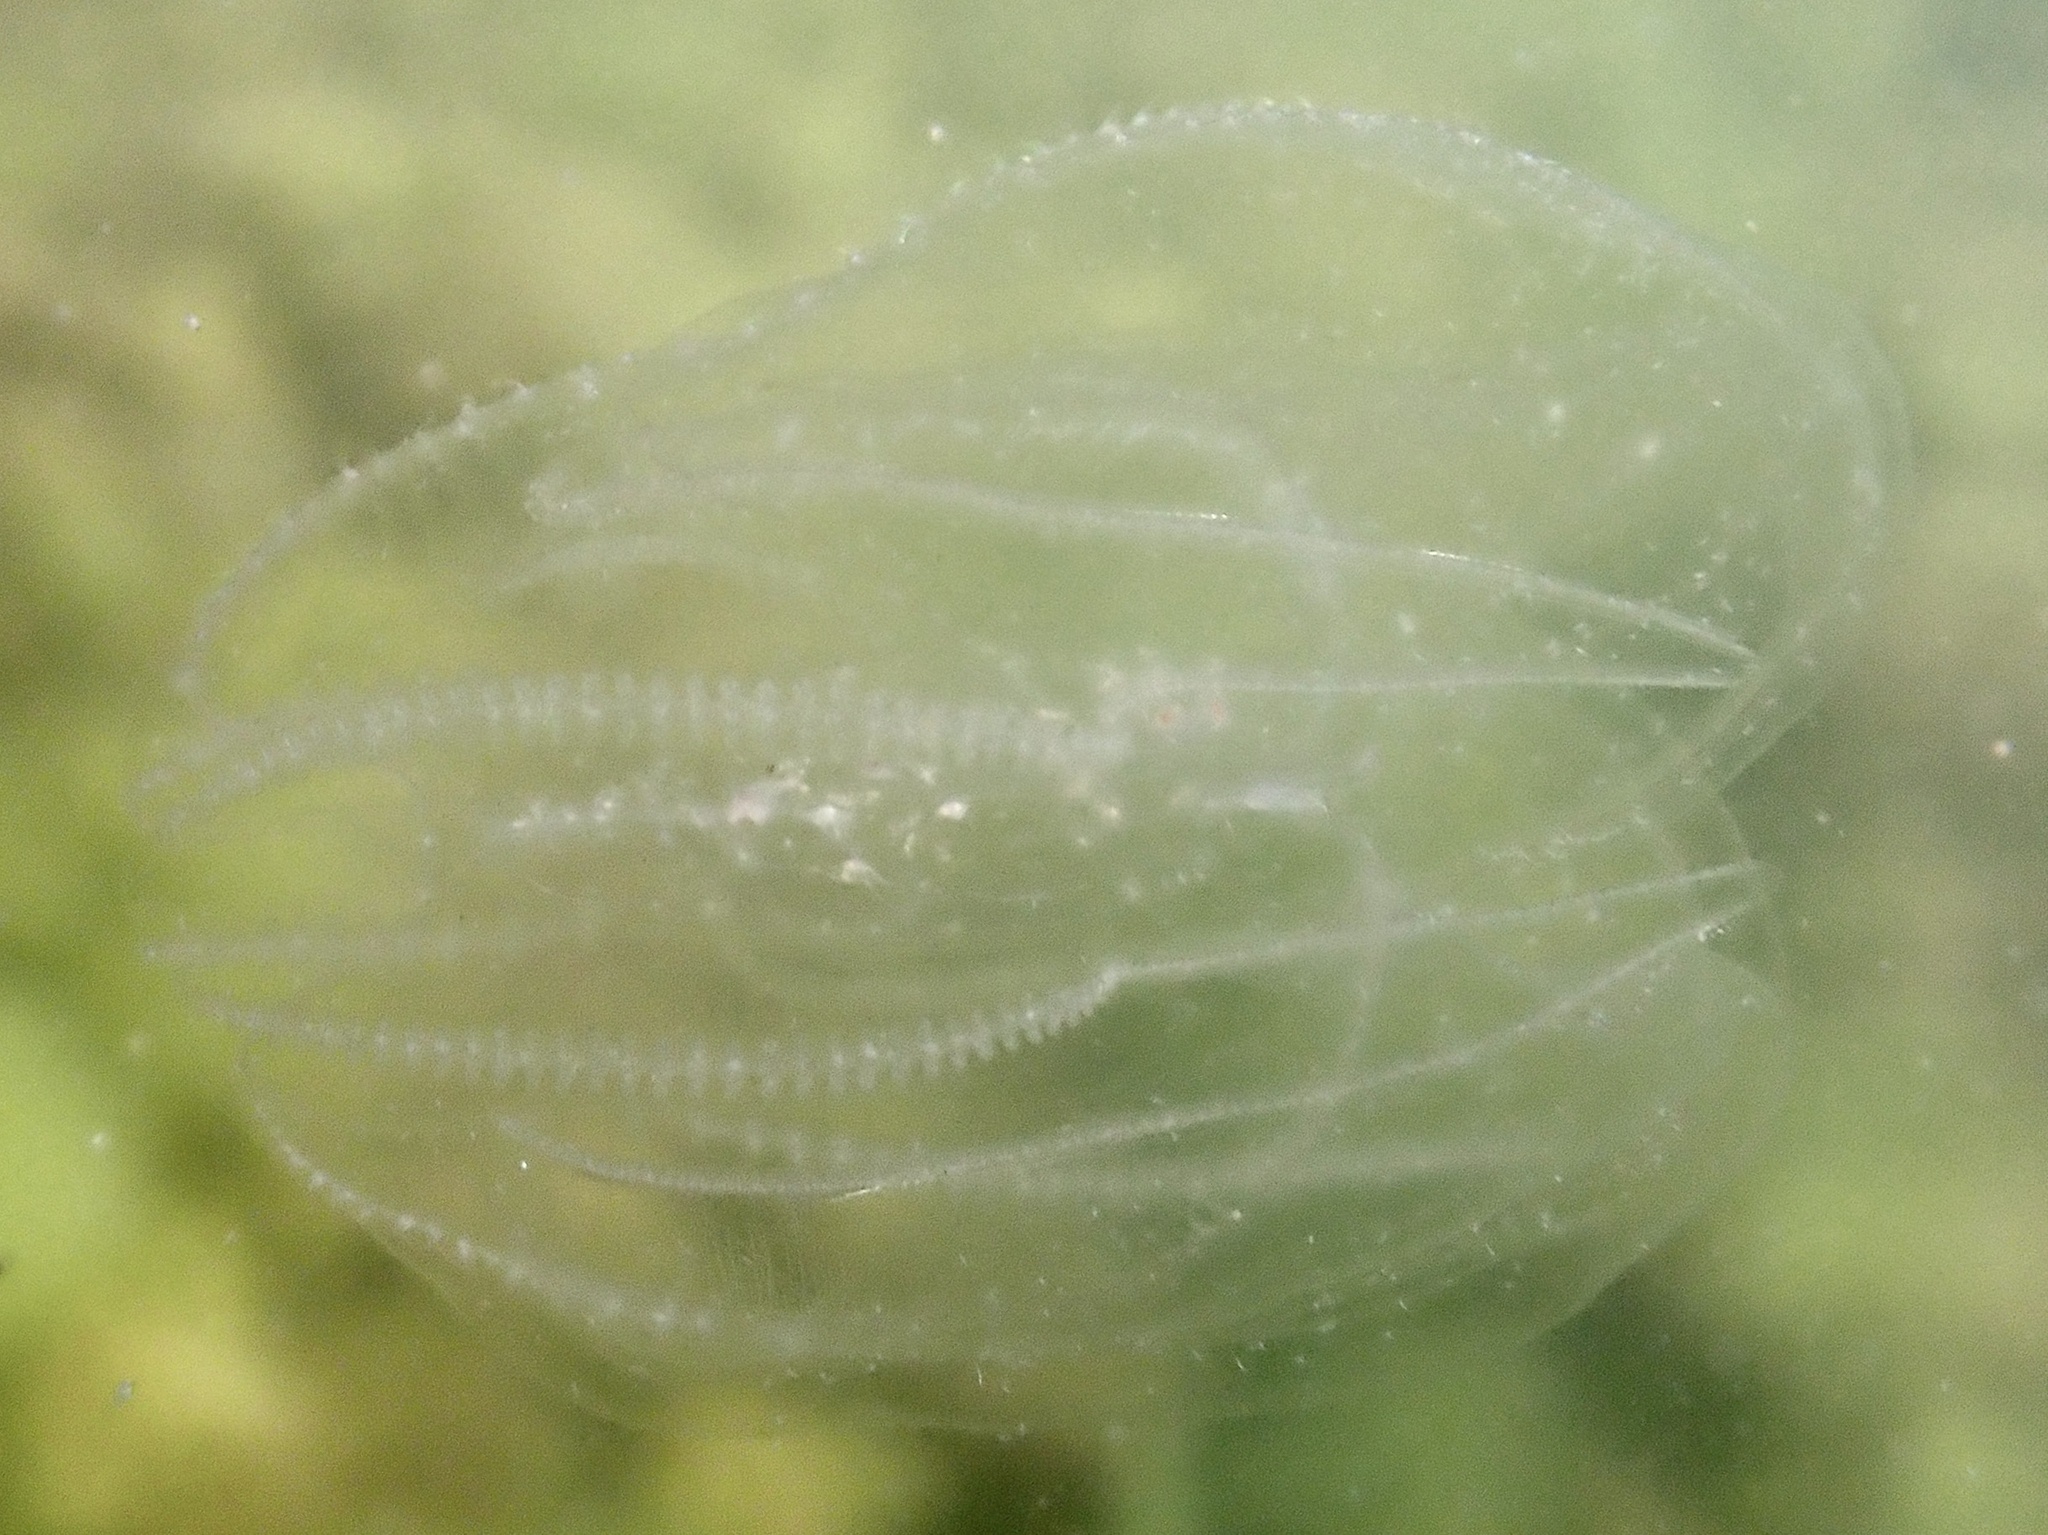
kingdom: Animalia
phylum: Ctenophora
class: Tentaculata
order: Lobata
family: Bolinopsidae
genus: Mnemiopsis
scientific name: Mnemiopsis leidyi
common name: American comb jelly
